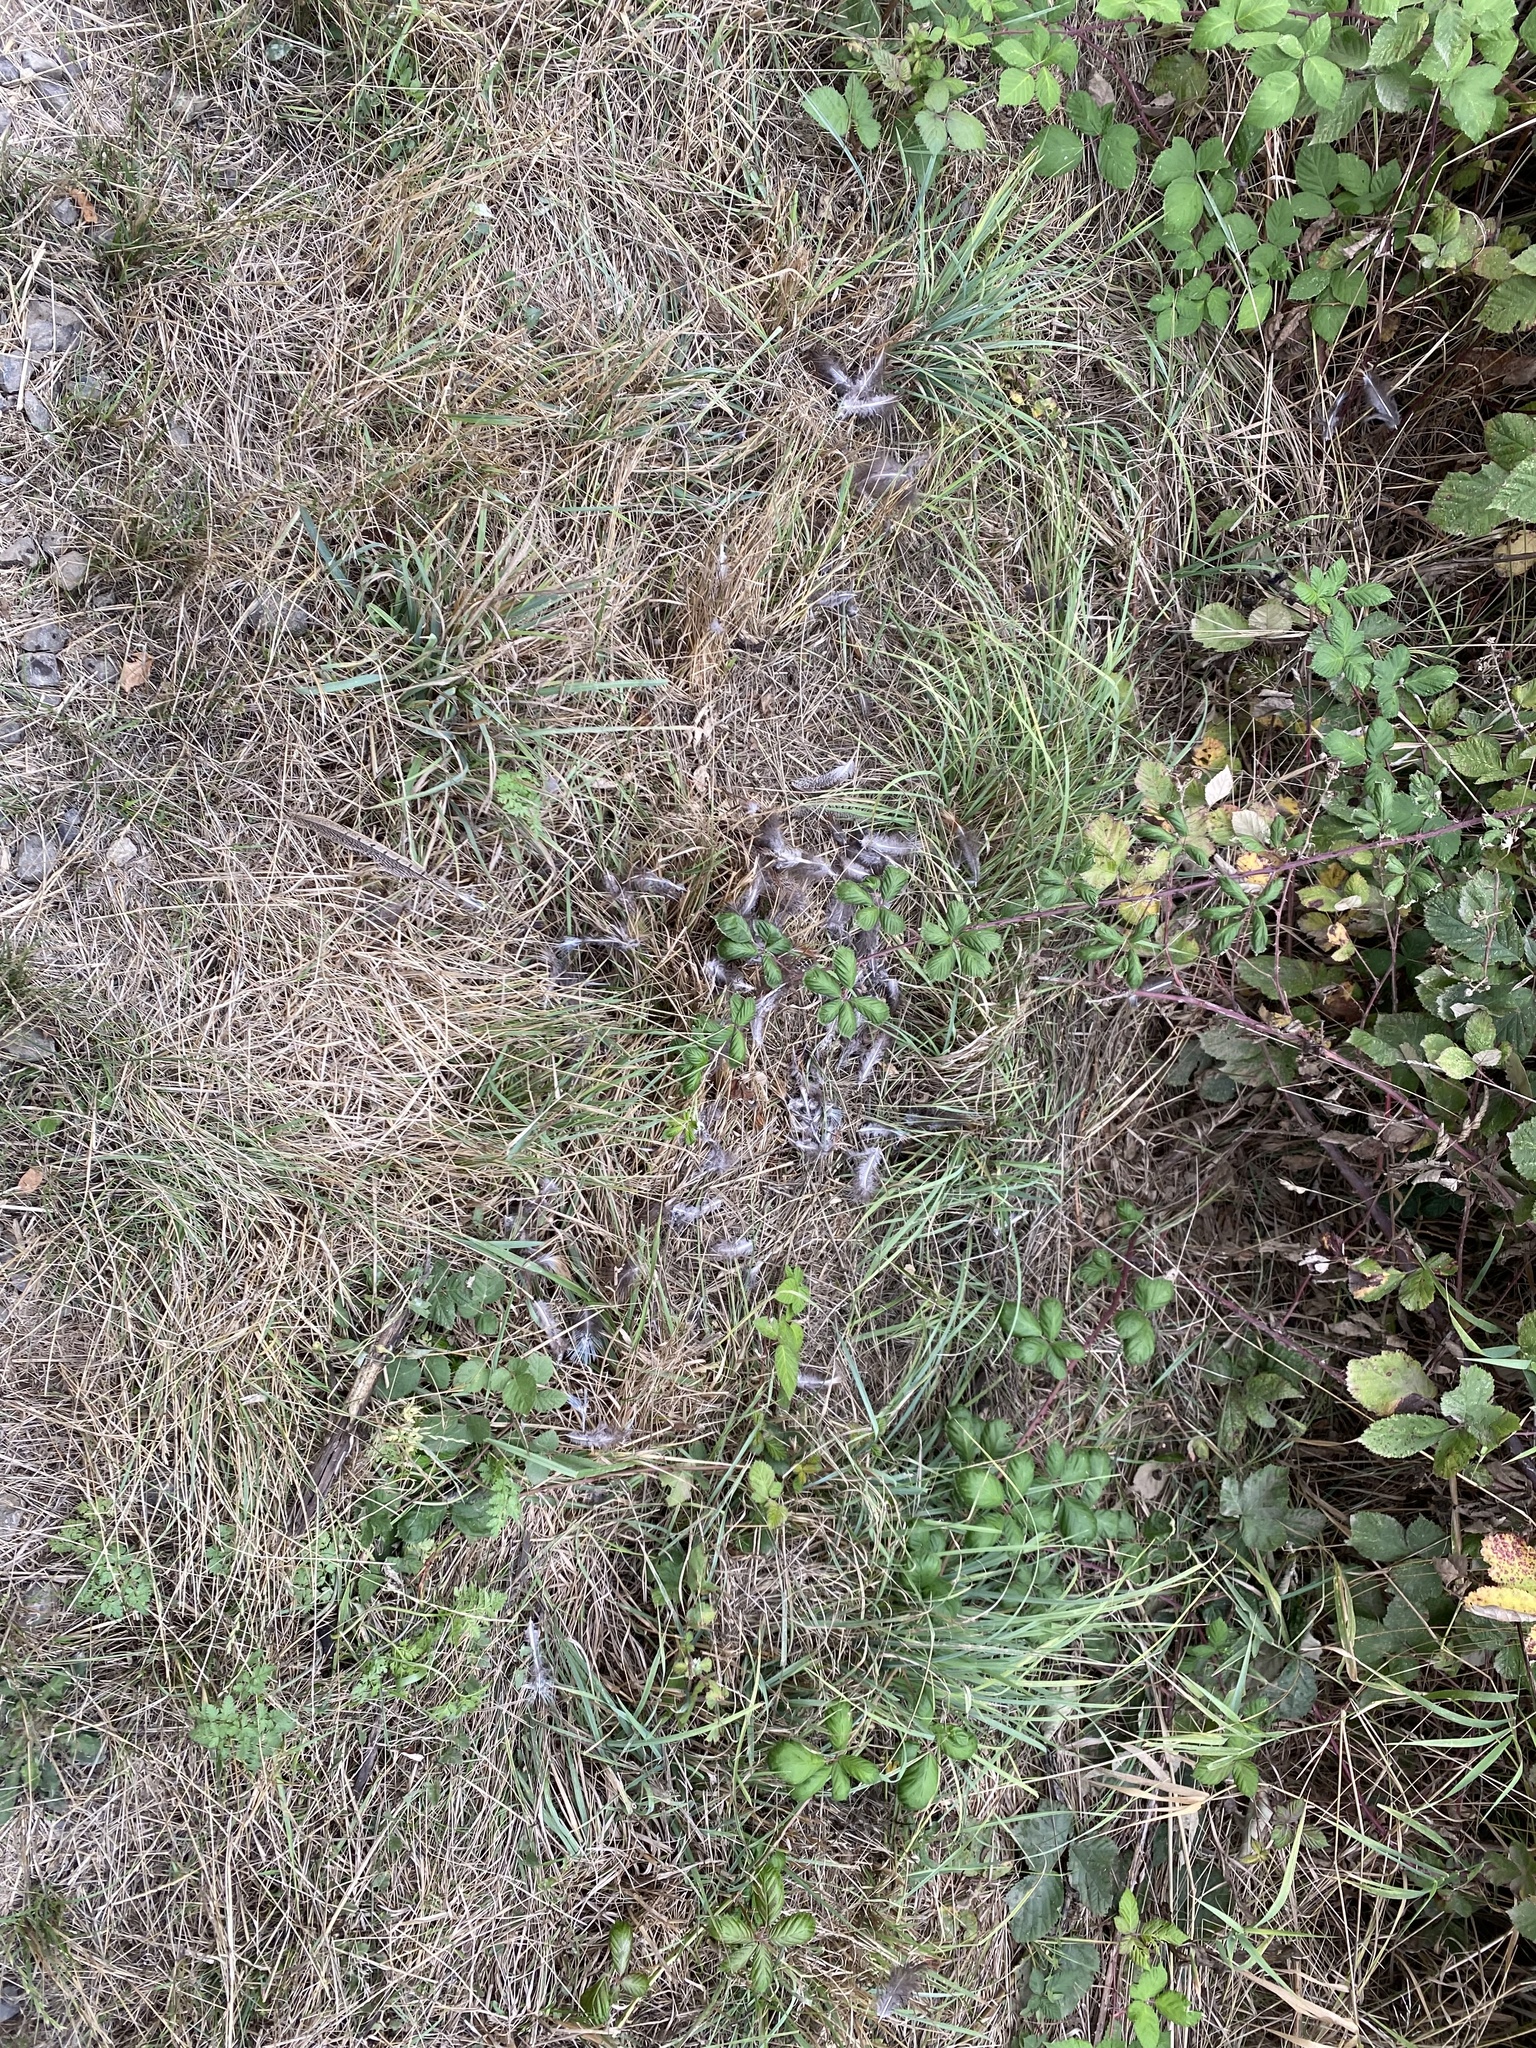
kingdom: Animalia
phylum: Chordata
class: Aves
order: Galliformes
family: Phasianidae
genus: Phasianus
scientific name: Phasianus colchicus
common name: Common pheasant
